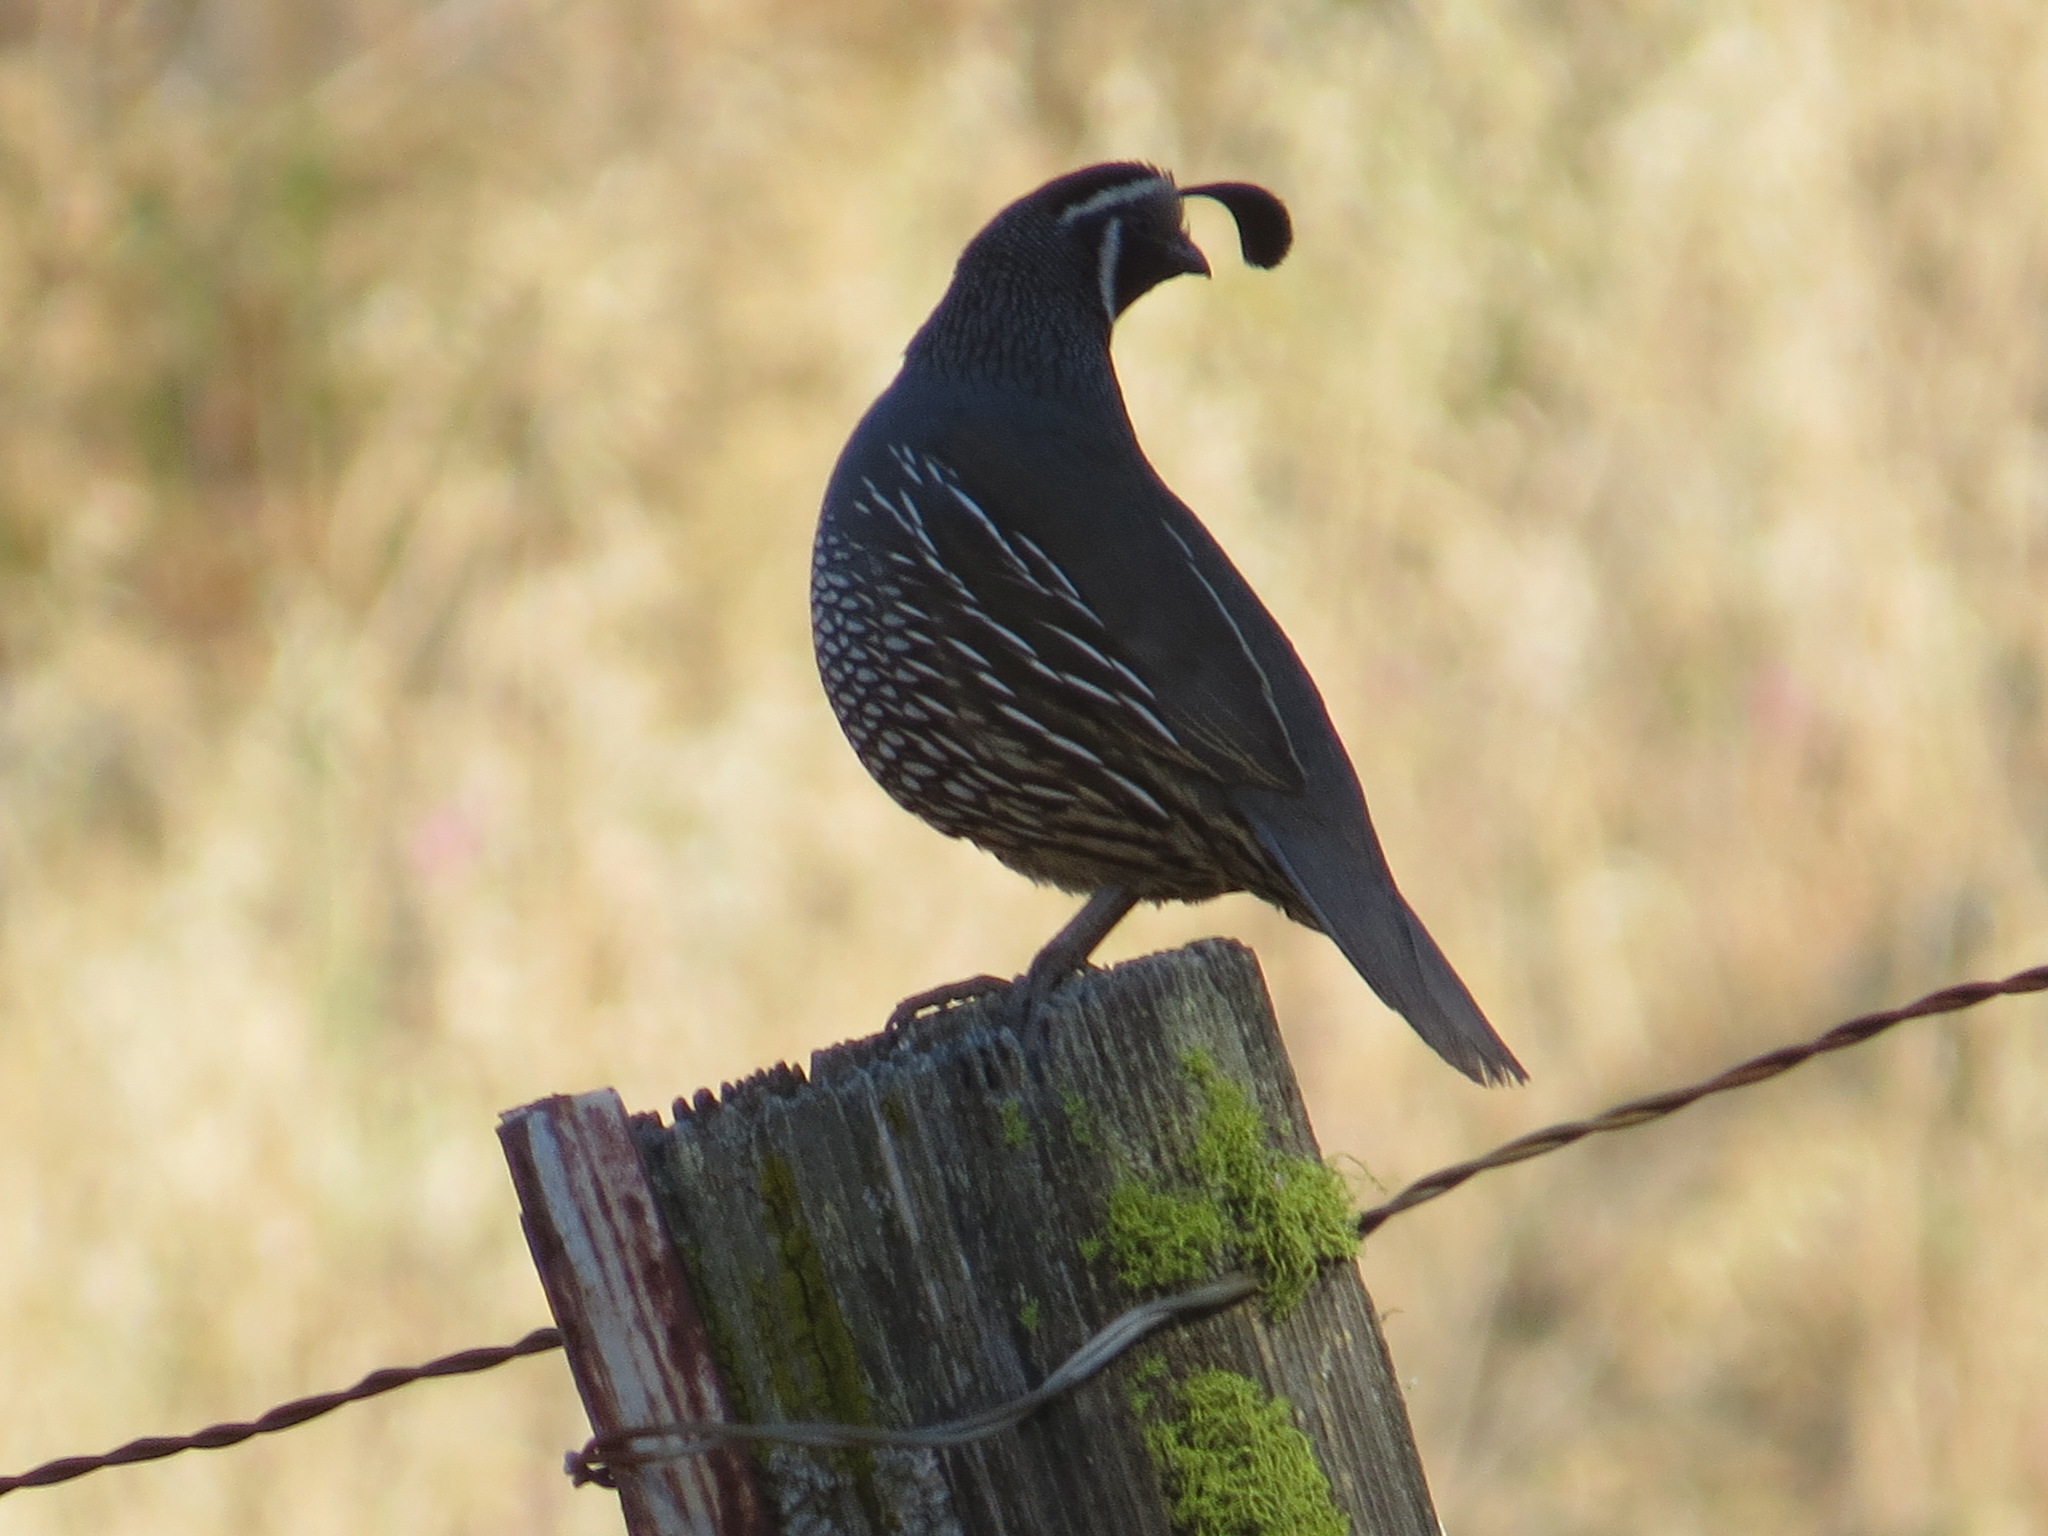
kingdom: Animalia
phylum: Chordata
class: Aves
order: Galliformes
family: Odontophoridae
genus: Callipepla
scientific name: Callipepla californica
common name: California quail
